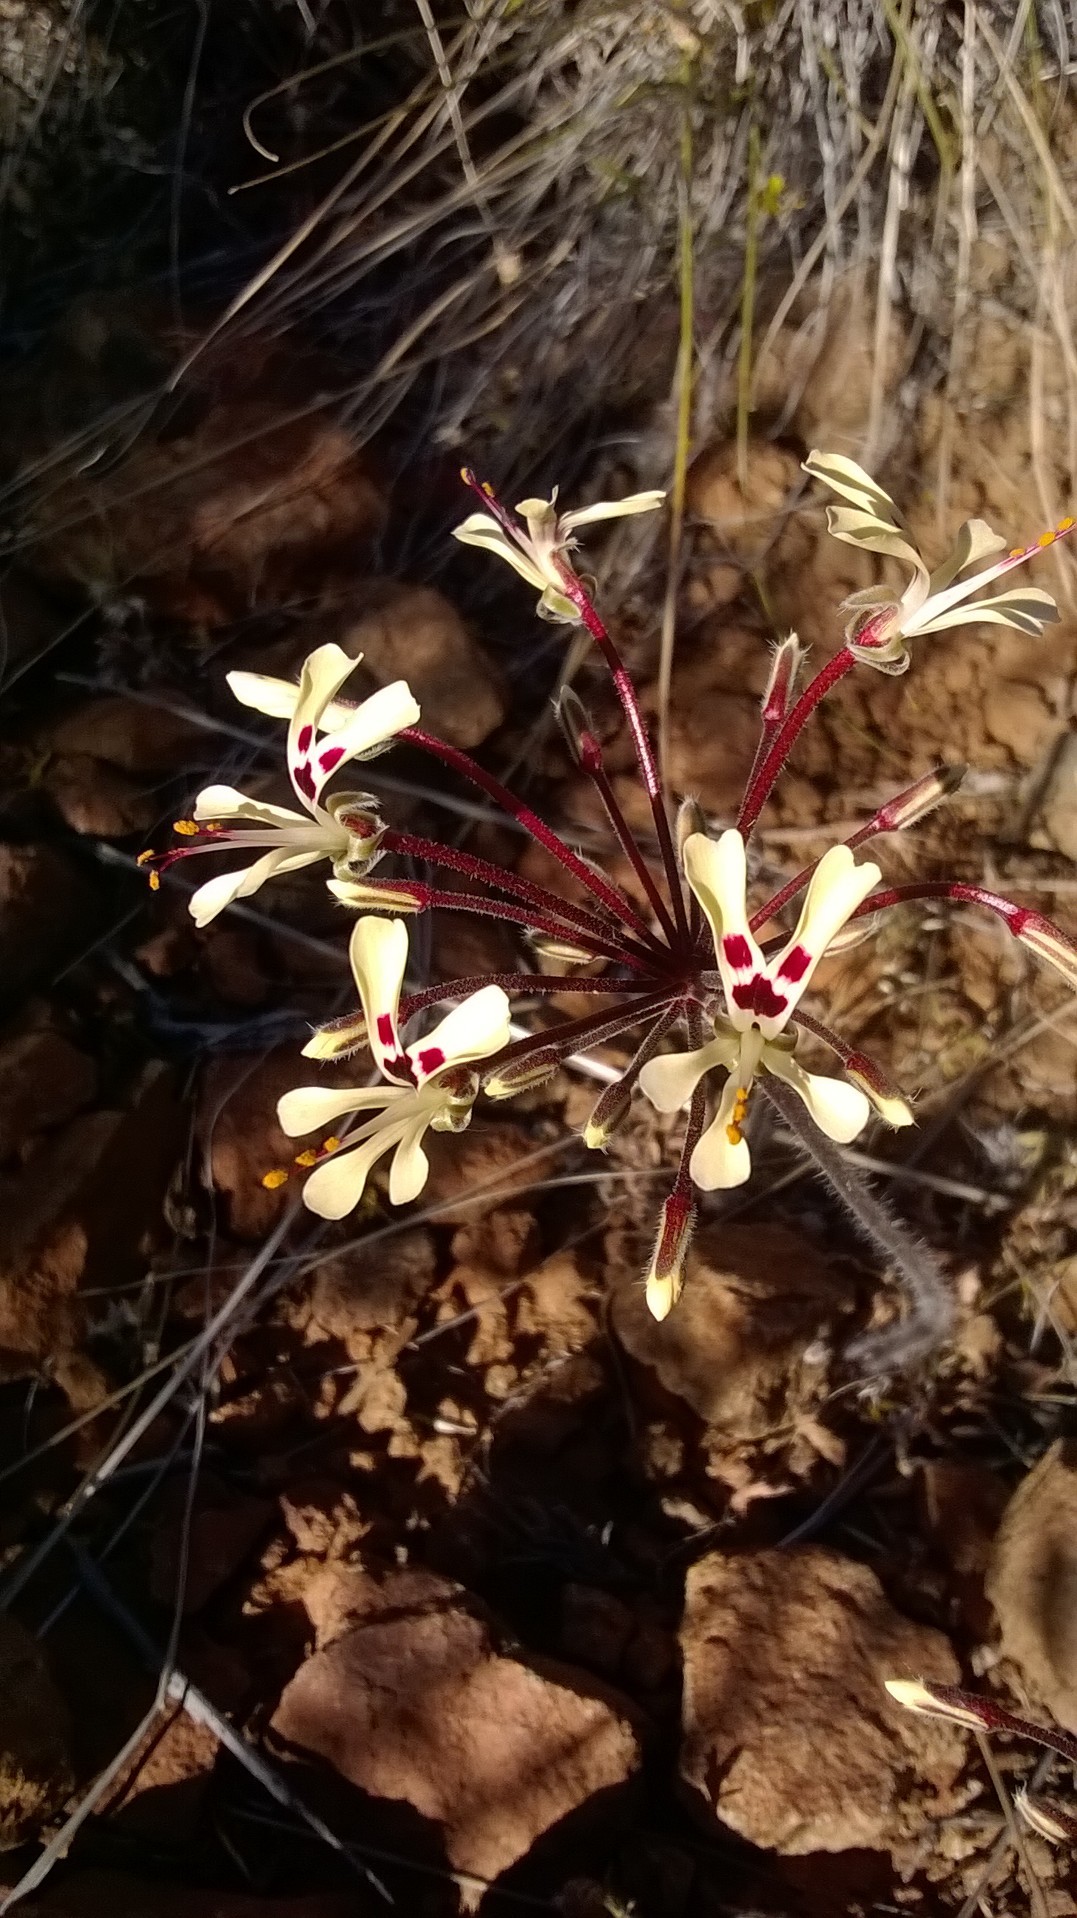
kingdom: Plantae
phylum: Tracheophyta
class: Magnoliopsida
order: Geraniales
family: Geraniaceae
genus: Pelargonium
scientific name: Pelargonium moniliforme
